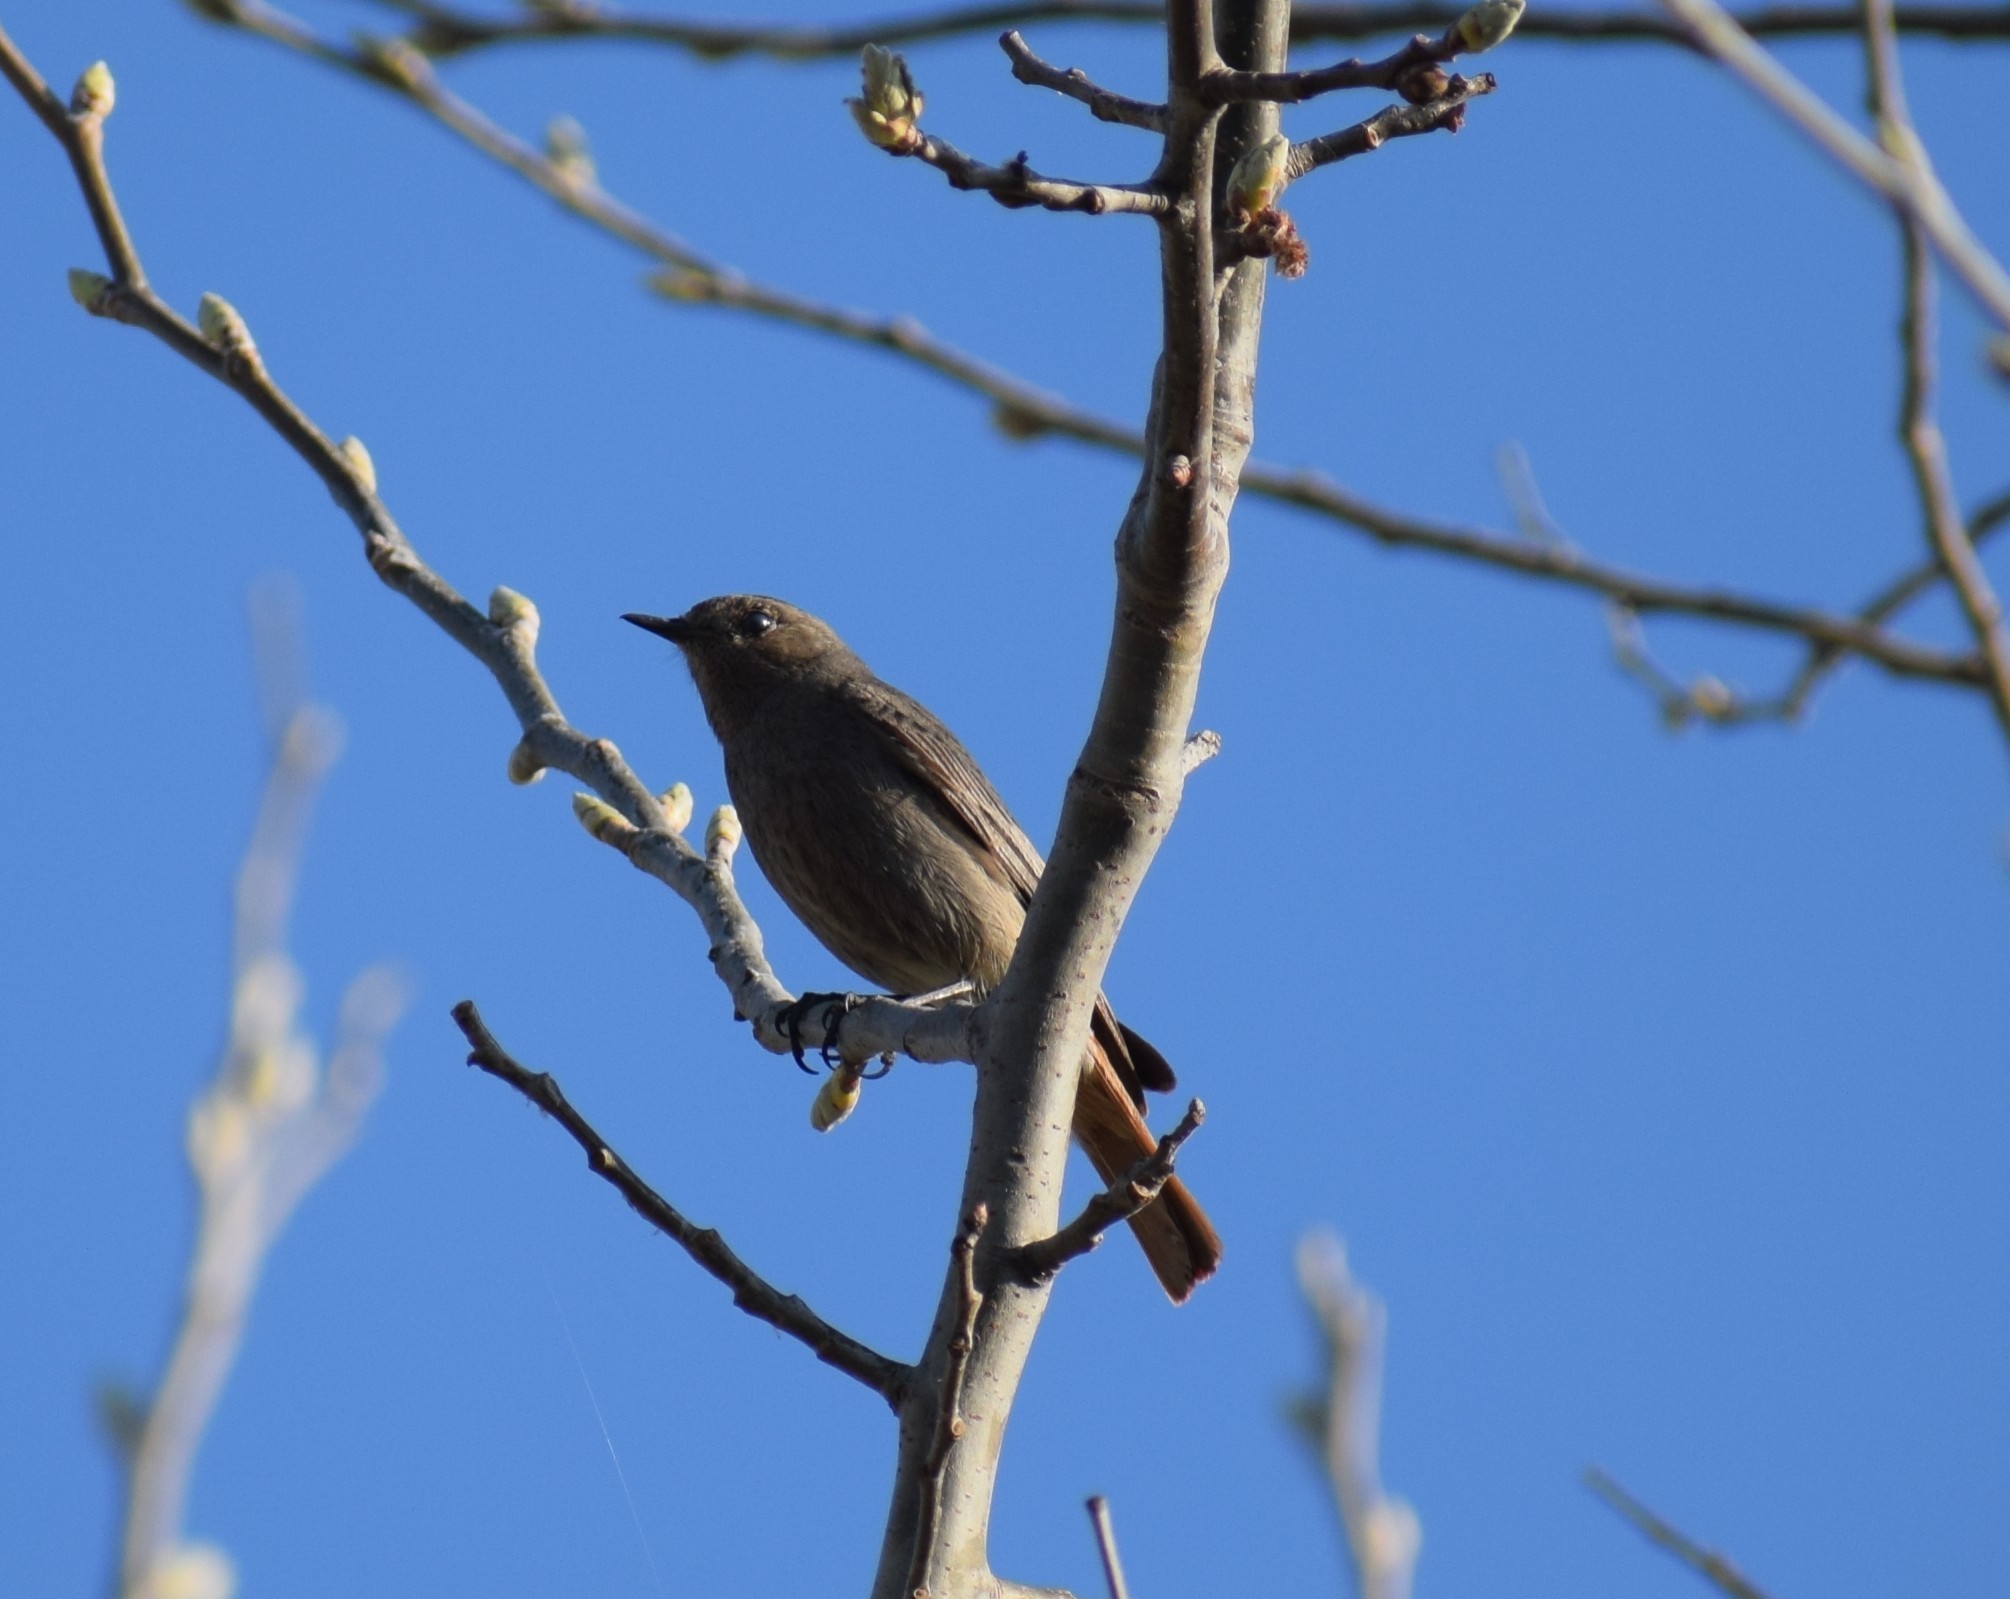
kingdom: Animalia
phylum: Chordata
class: Aves
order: Passeriformes
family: Muscicapidae
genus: Phoenicurus
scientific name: Phoenicurus ochruros
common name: Black redstart
